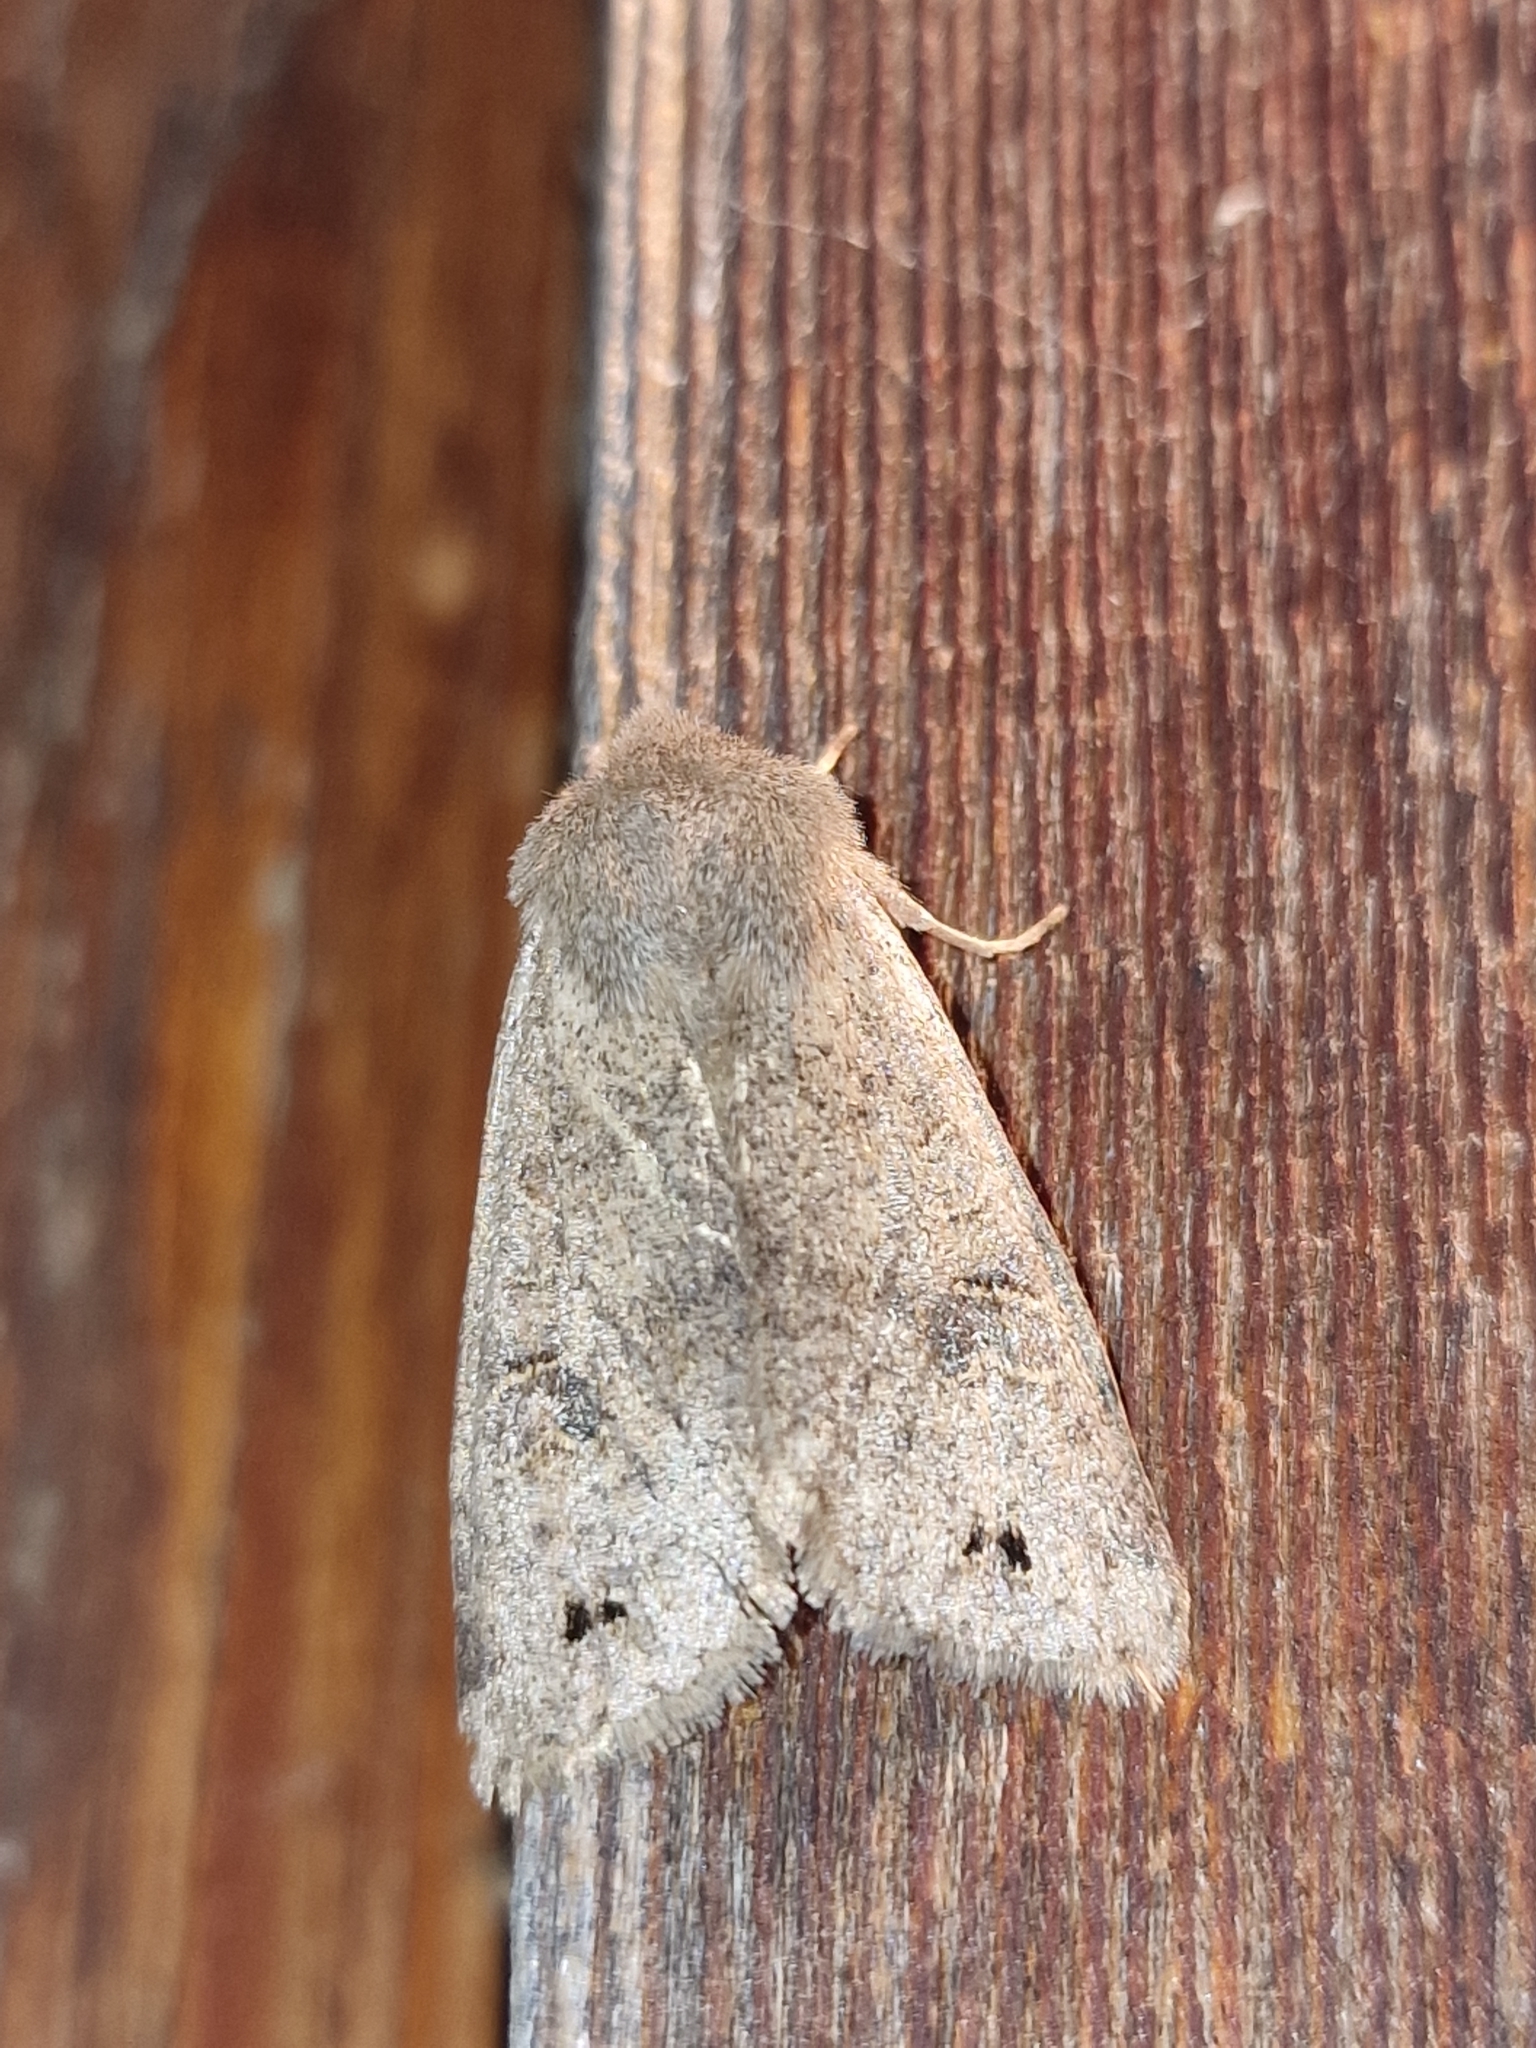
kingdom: Animalia
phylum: Arthropoda
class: Insecta
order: Lepidoptera
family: Noctuidae
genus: Anorthoa
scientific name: Anorthoa munda
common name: Twin-spotted quaker
